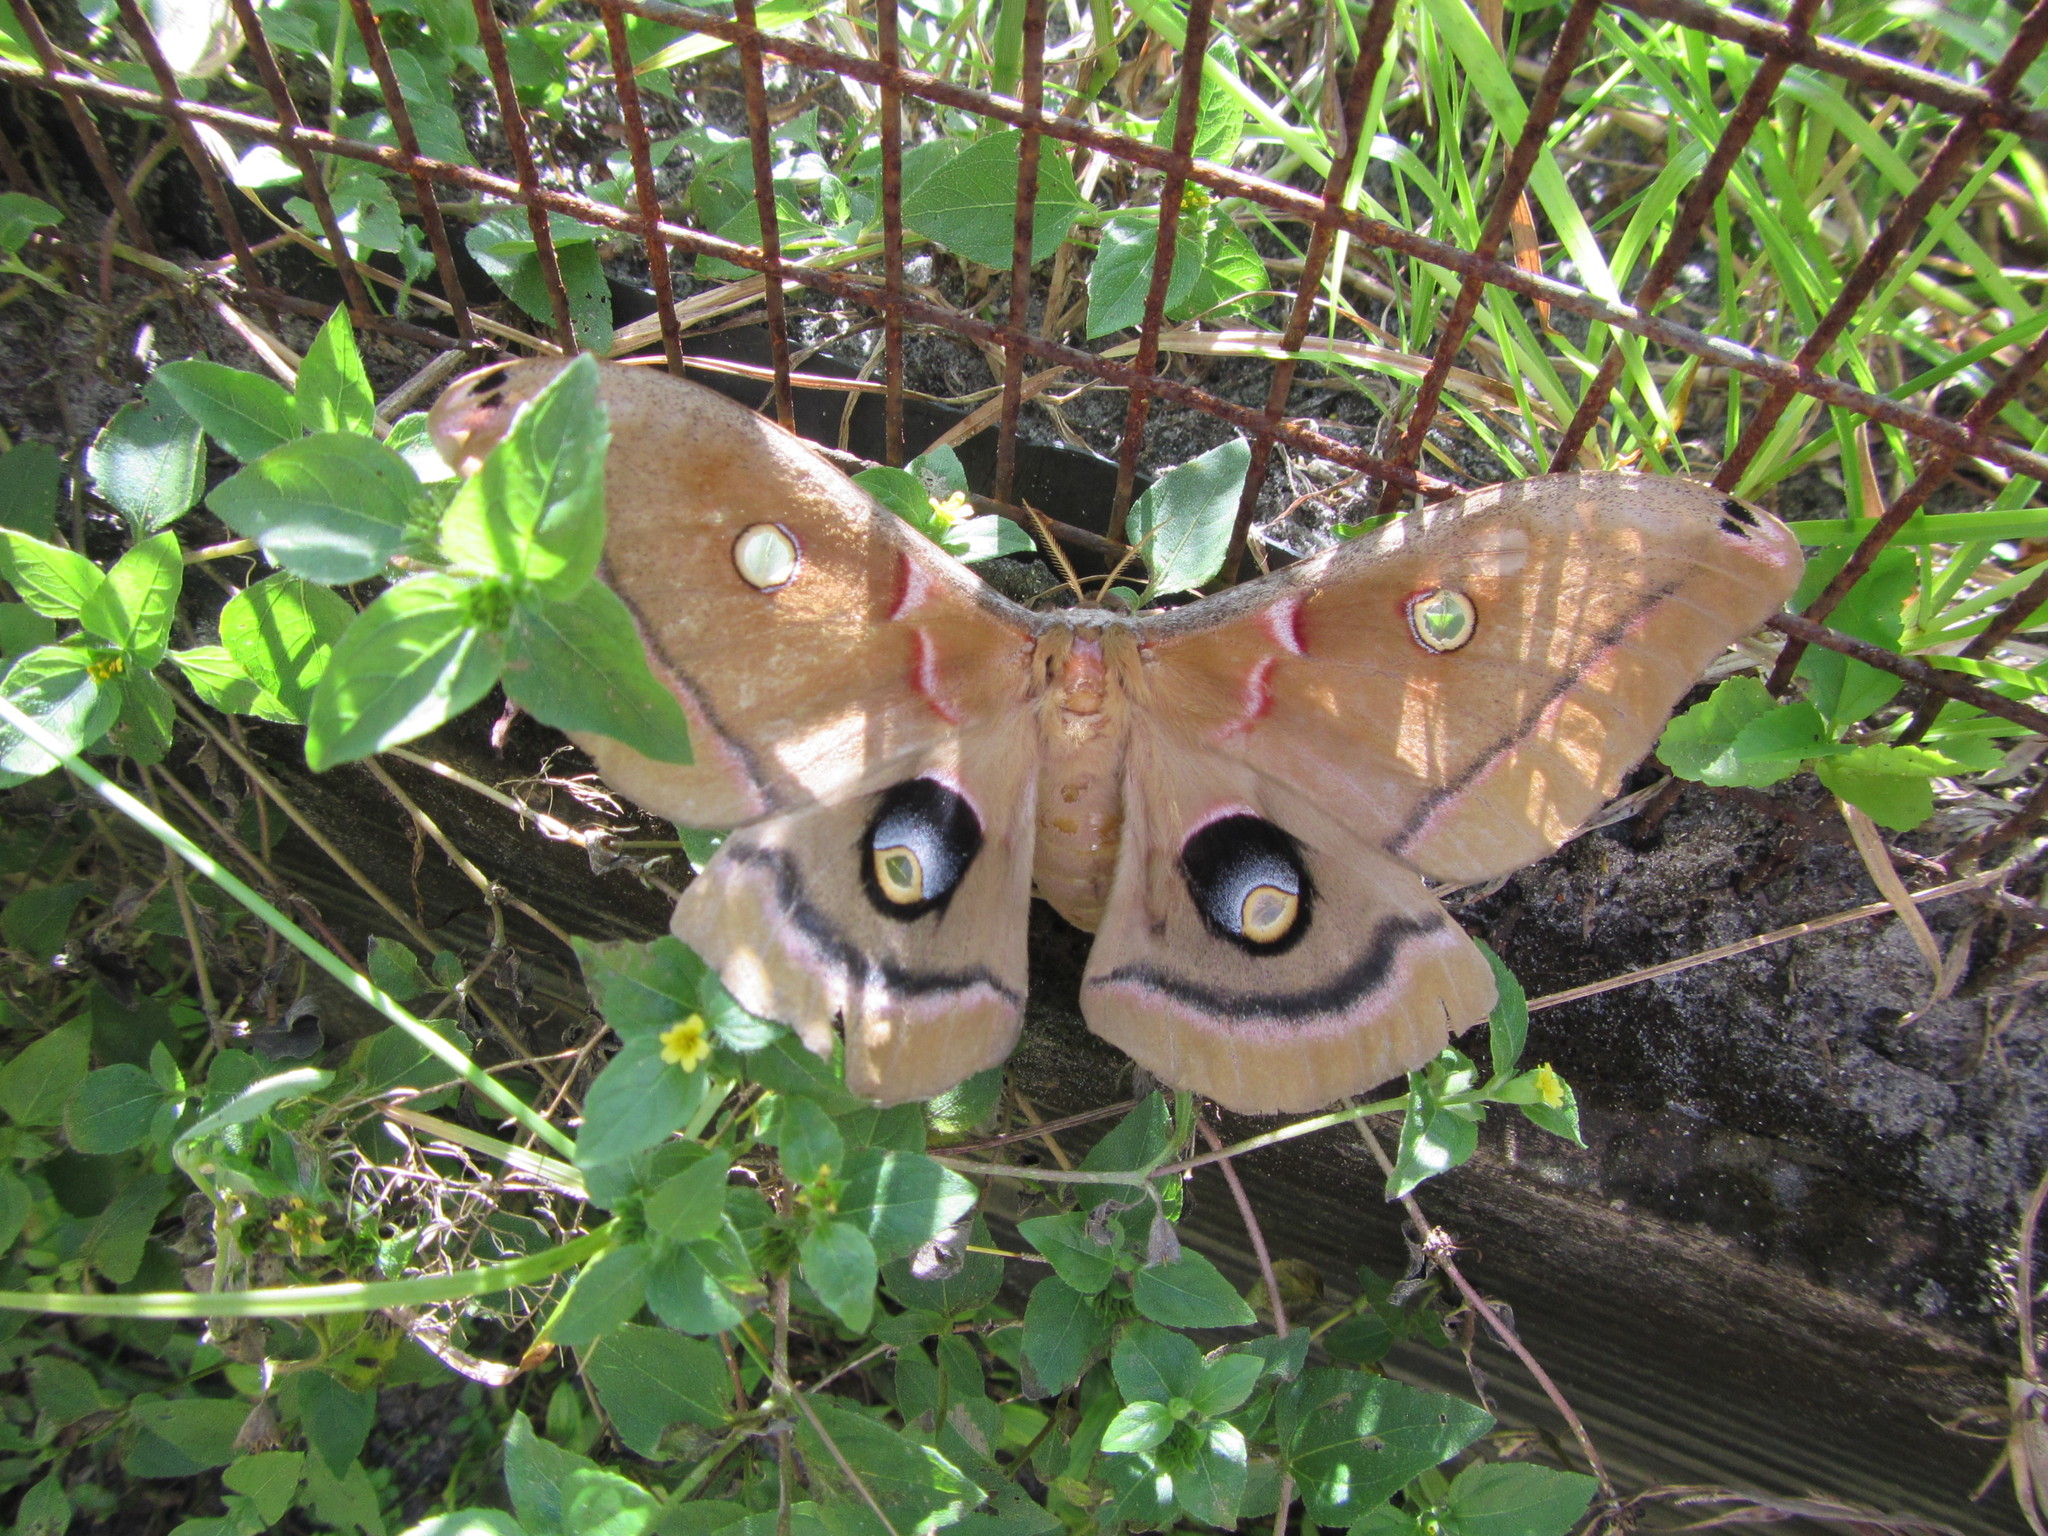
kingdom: Animalia
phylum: Arthropoda
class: Insecta
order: Lepidoptera
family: Saturniidae
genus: Antheraea
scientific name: Antheraea polyphemus
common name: Polyphemus moth
